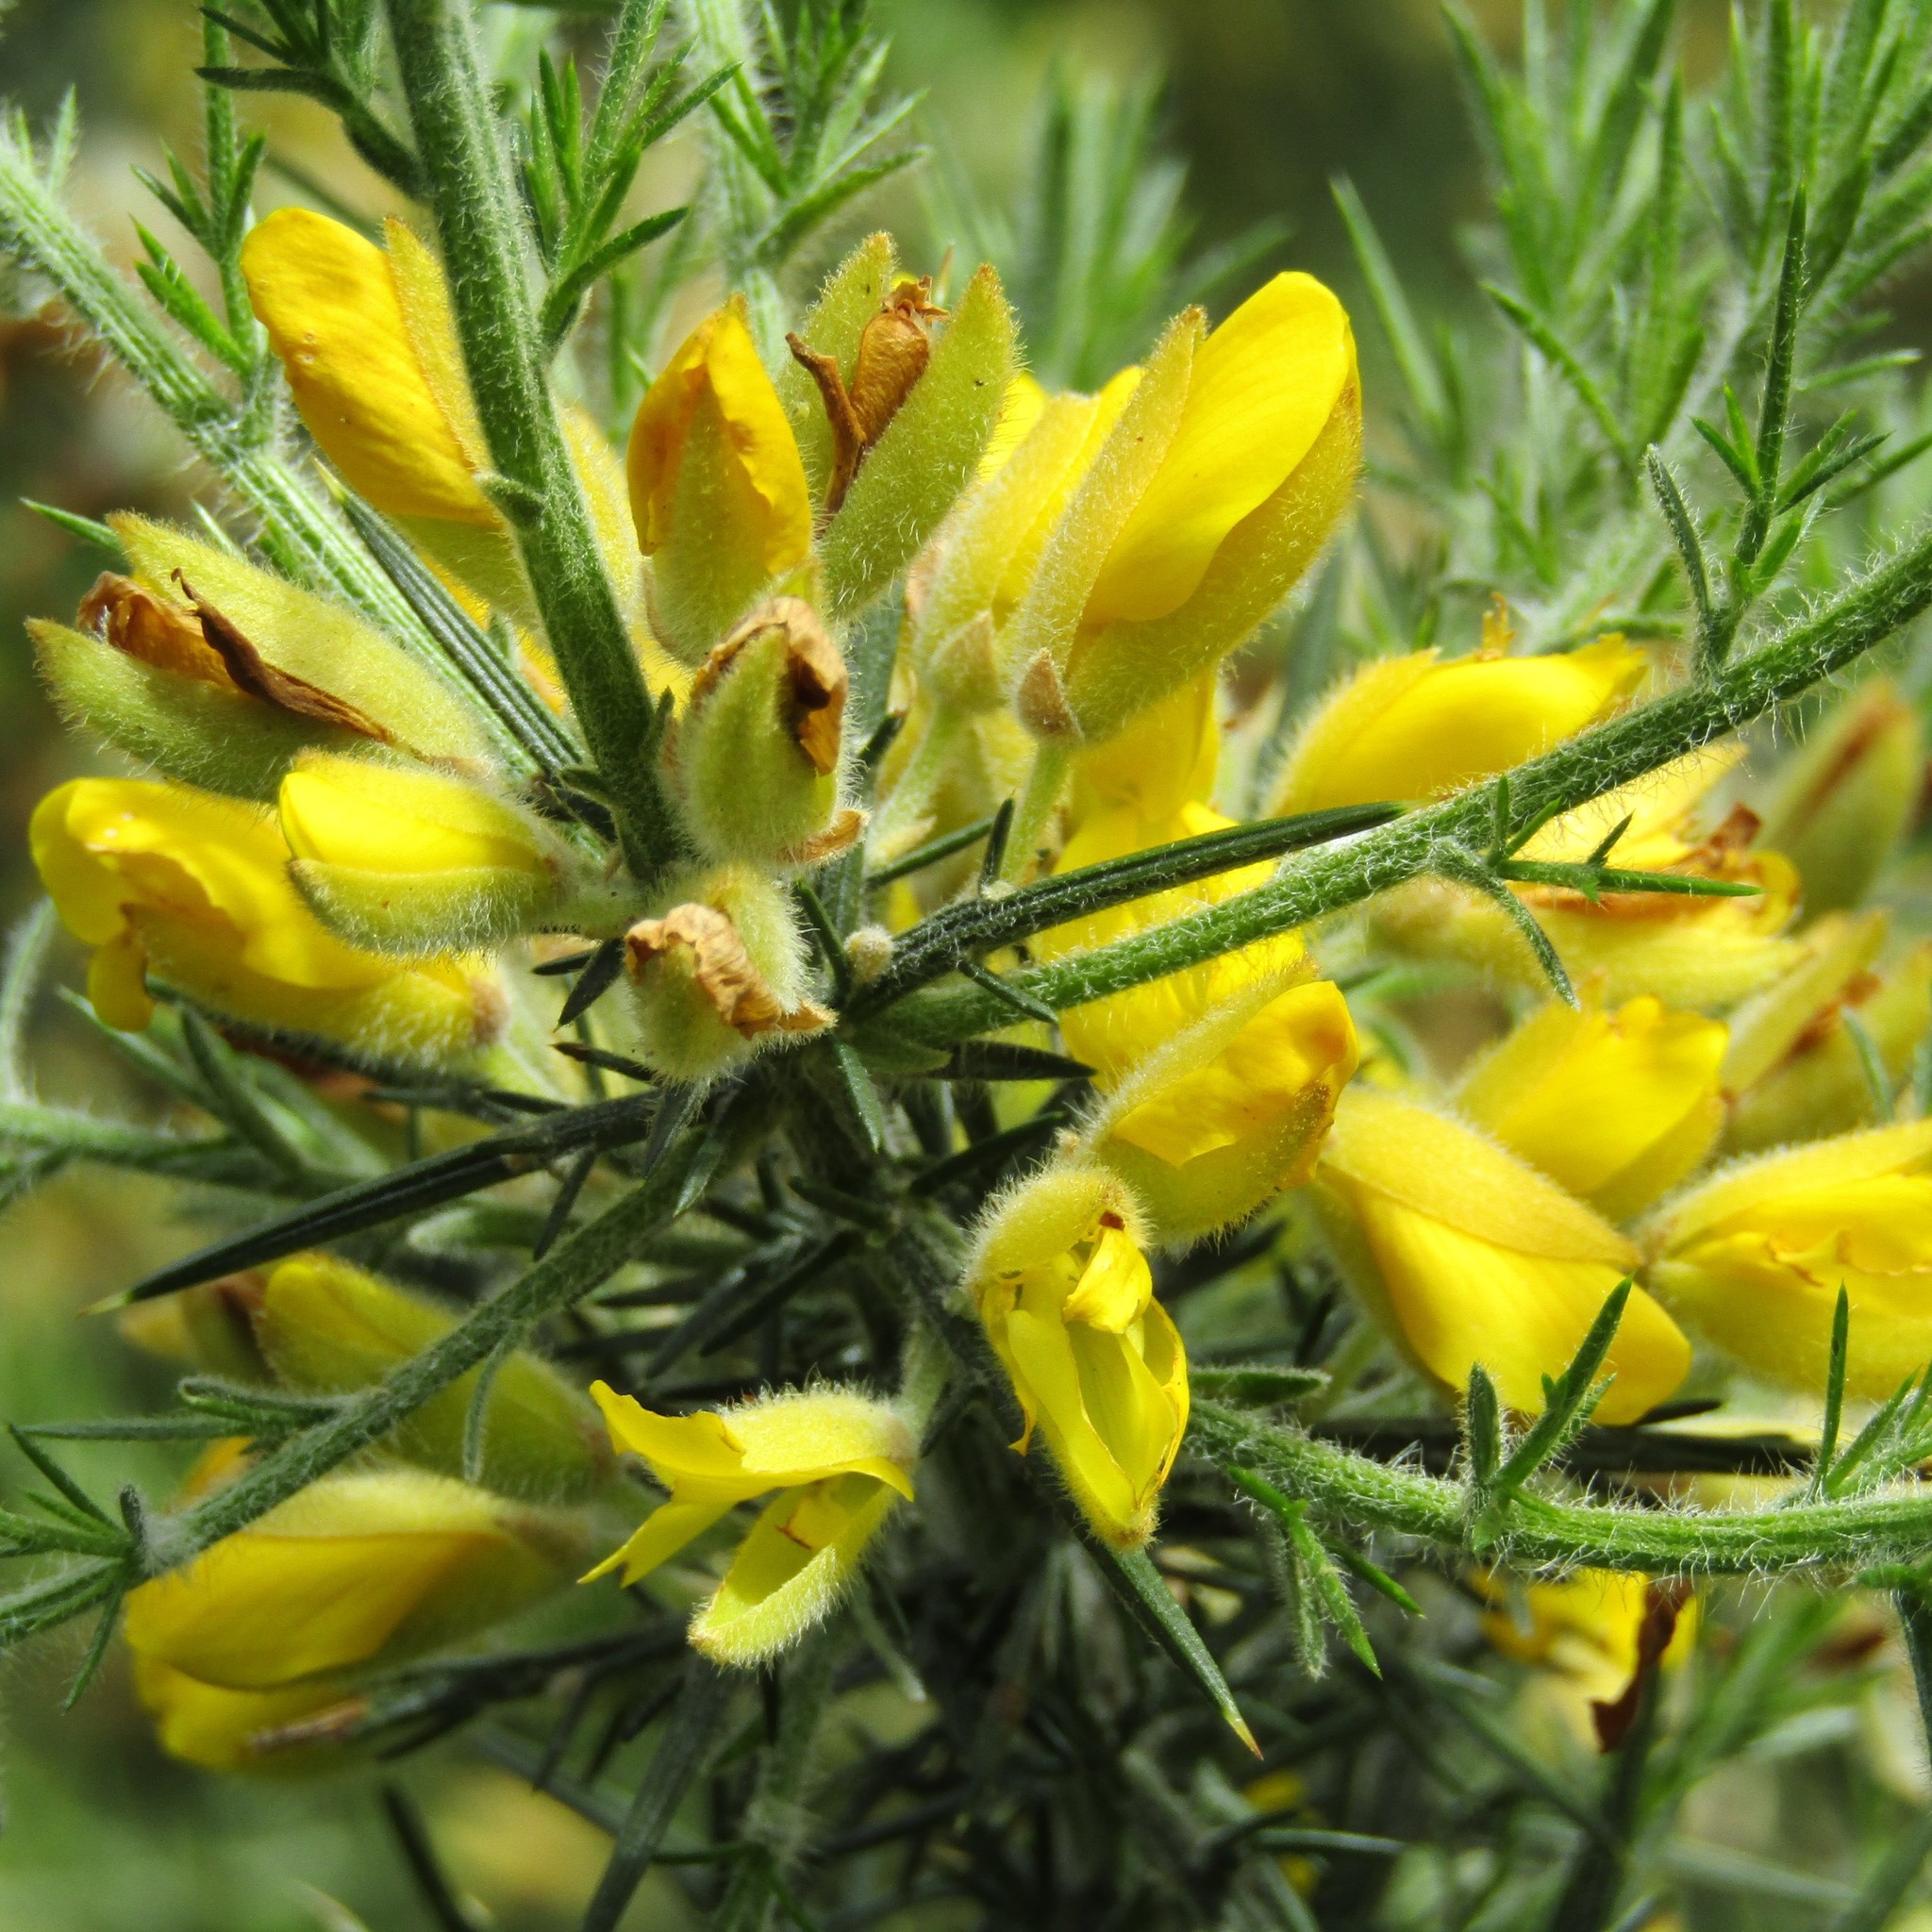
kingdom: Plantae
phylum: Tracheophyta
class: Magnoliopsida
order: Fabales
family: Fabaceae
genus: Ulex
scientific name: Ulex europaeus
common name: Common gorse
